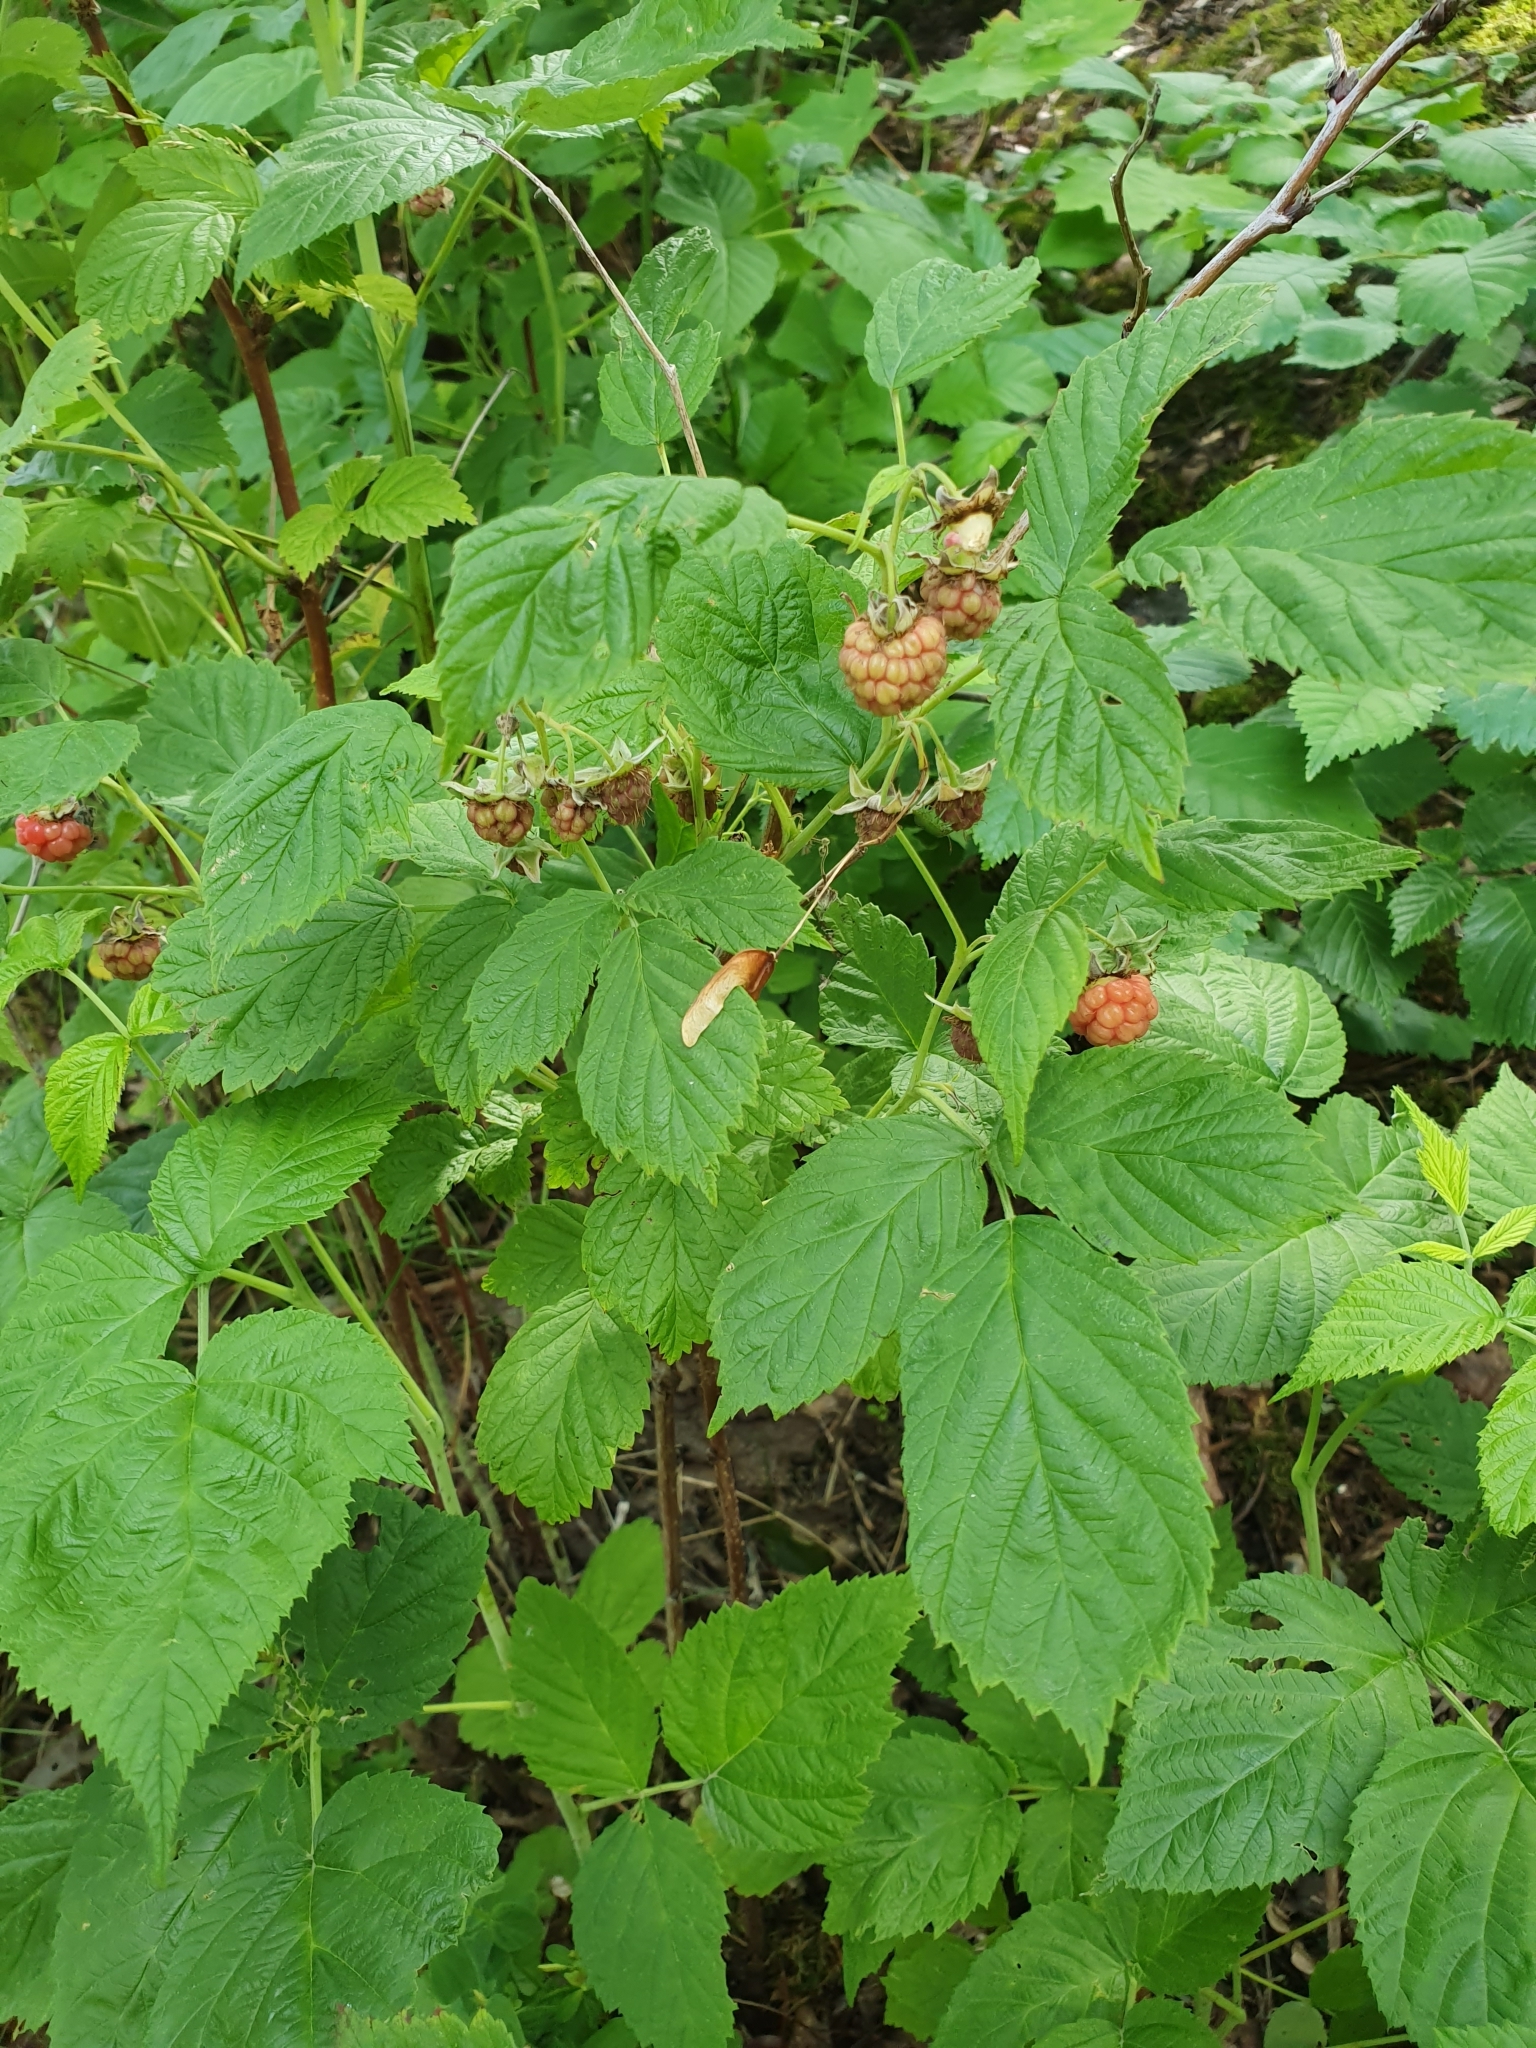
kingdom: Plantae
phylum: Tracheophyta
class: Magnoliopsida
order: Rosales
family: Rosaceae
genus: Rubus
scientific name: Rubus idaeus
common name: Raspberry
